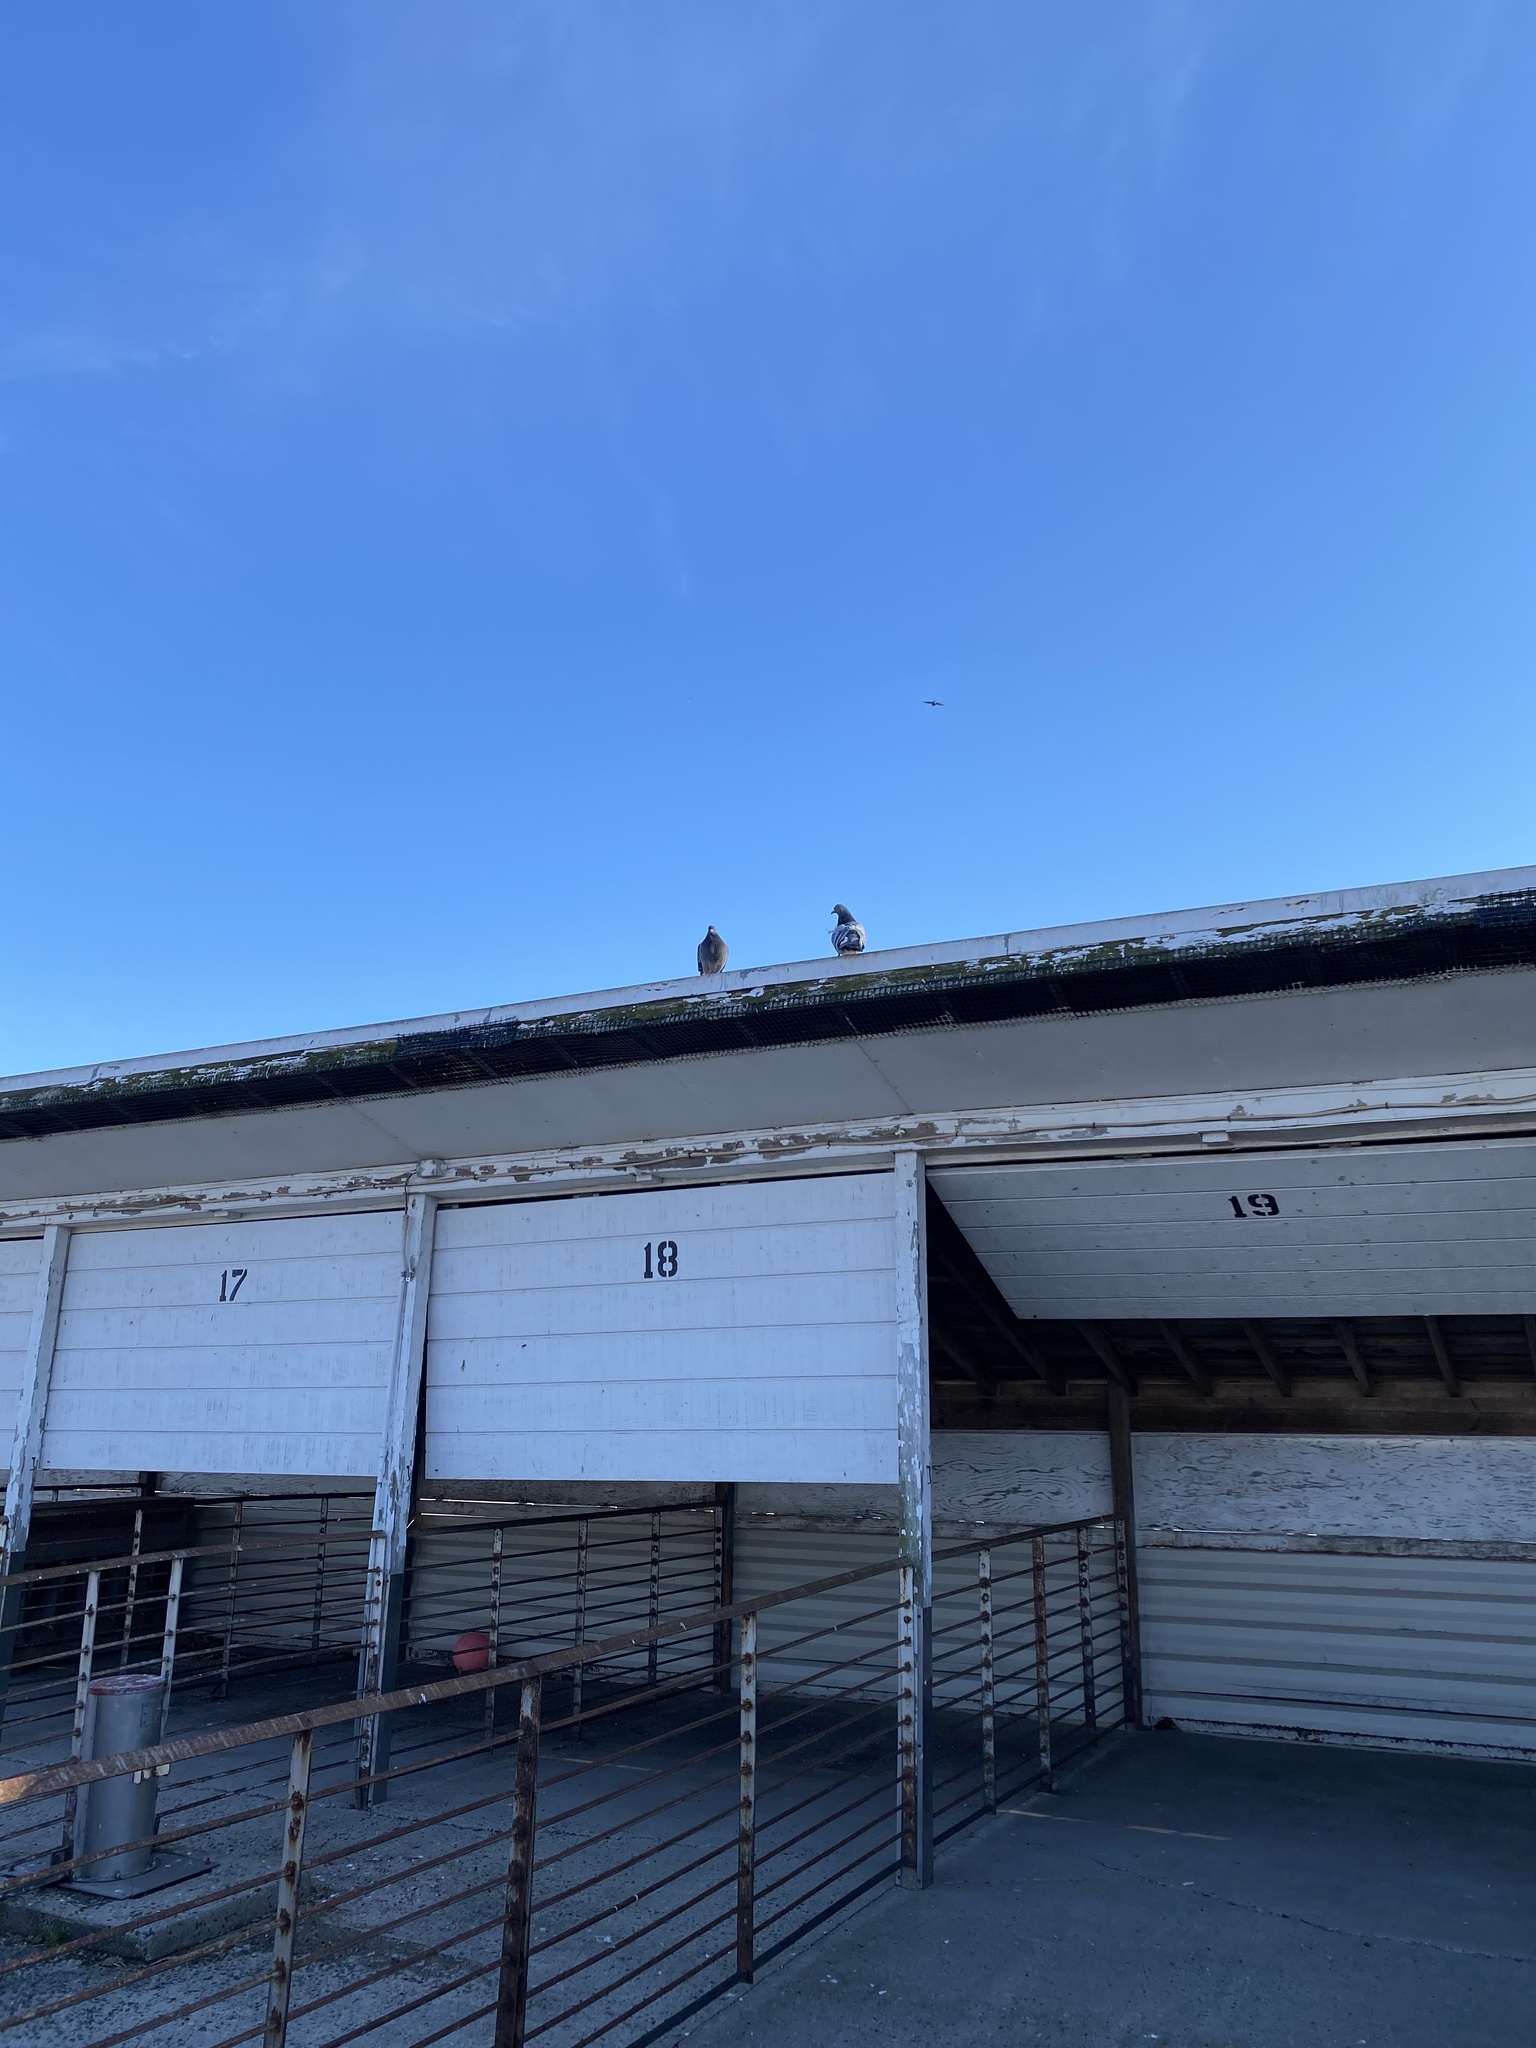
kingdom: Animalia
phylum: Chordata
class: Aves
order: Columbiformes
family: Columbidae
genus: Columba
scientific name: Columba livia
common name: Rock pigeon
